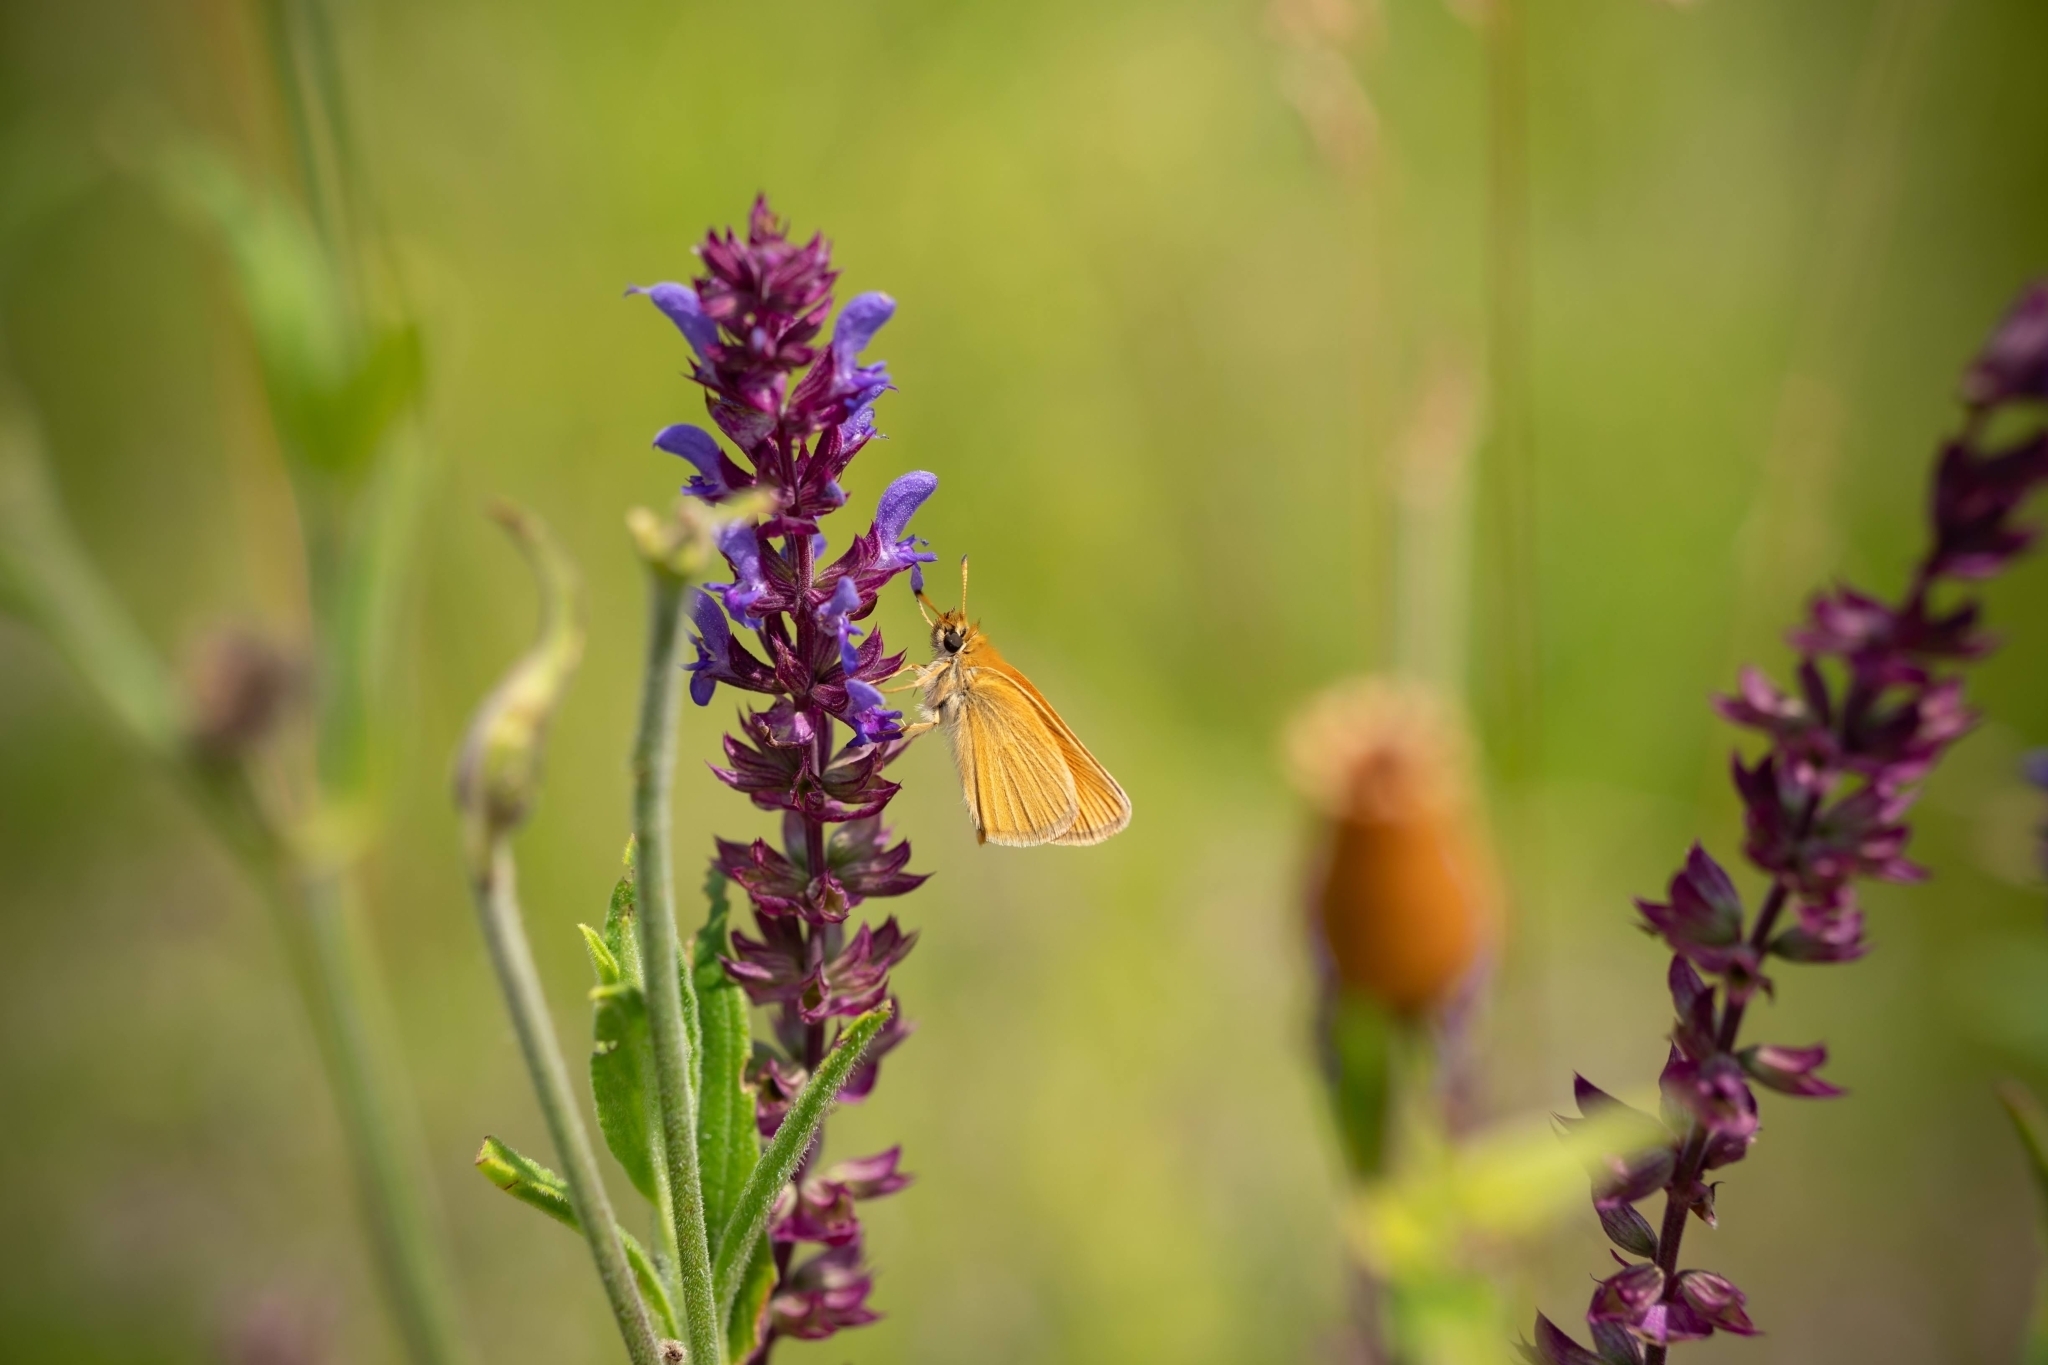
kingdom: Plantae
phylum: Tracheophyta
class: Magnoliopsida
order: Lamiales
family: Lamiaceae
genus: Salvia
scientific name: Salvia nemorosa
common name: Balkan clary
